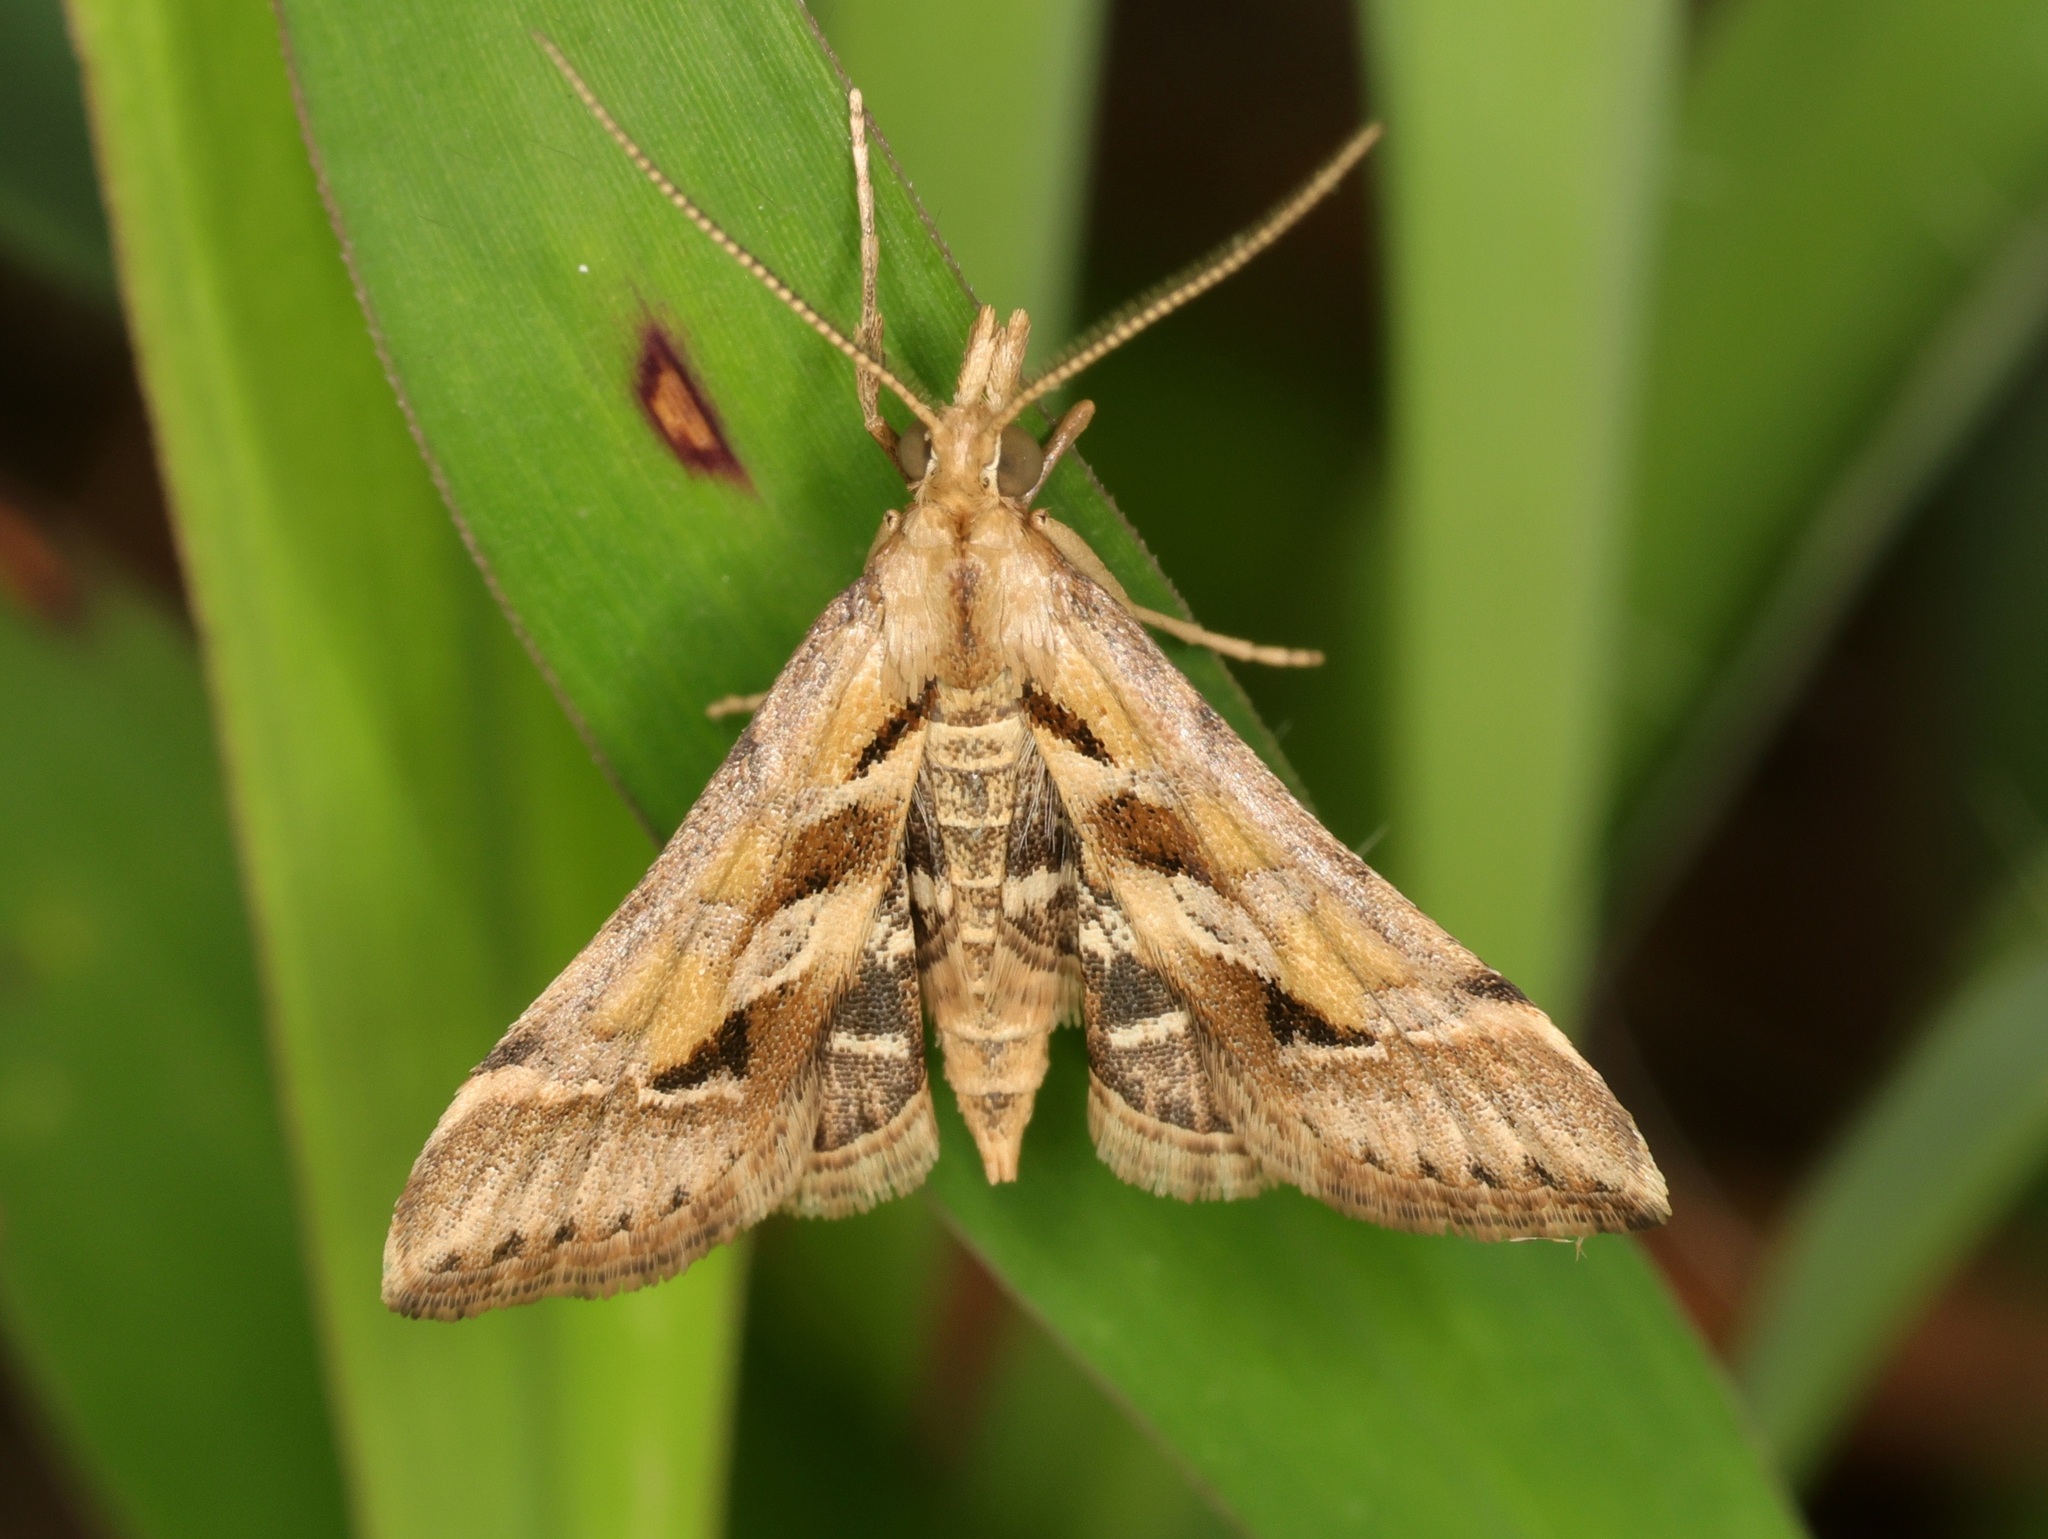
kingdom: Animalia
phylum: Arthropoda
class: Insecta
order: Lepidoptera
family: Crambidae
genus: Diasemia
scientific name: Diasemia accalis
